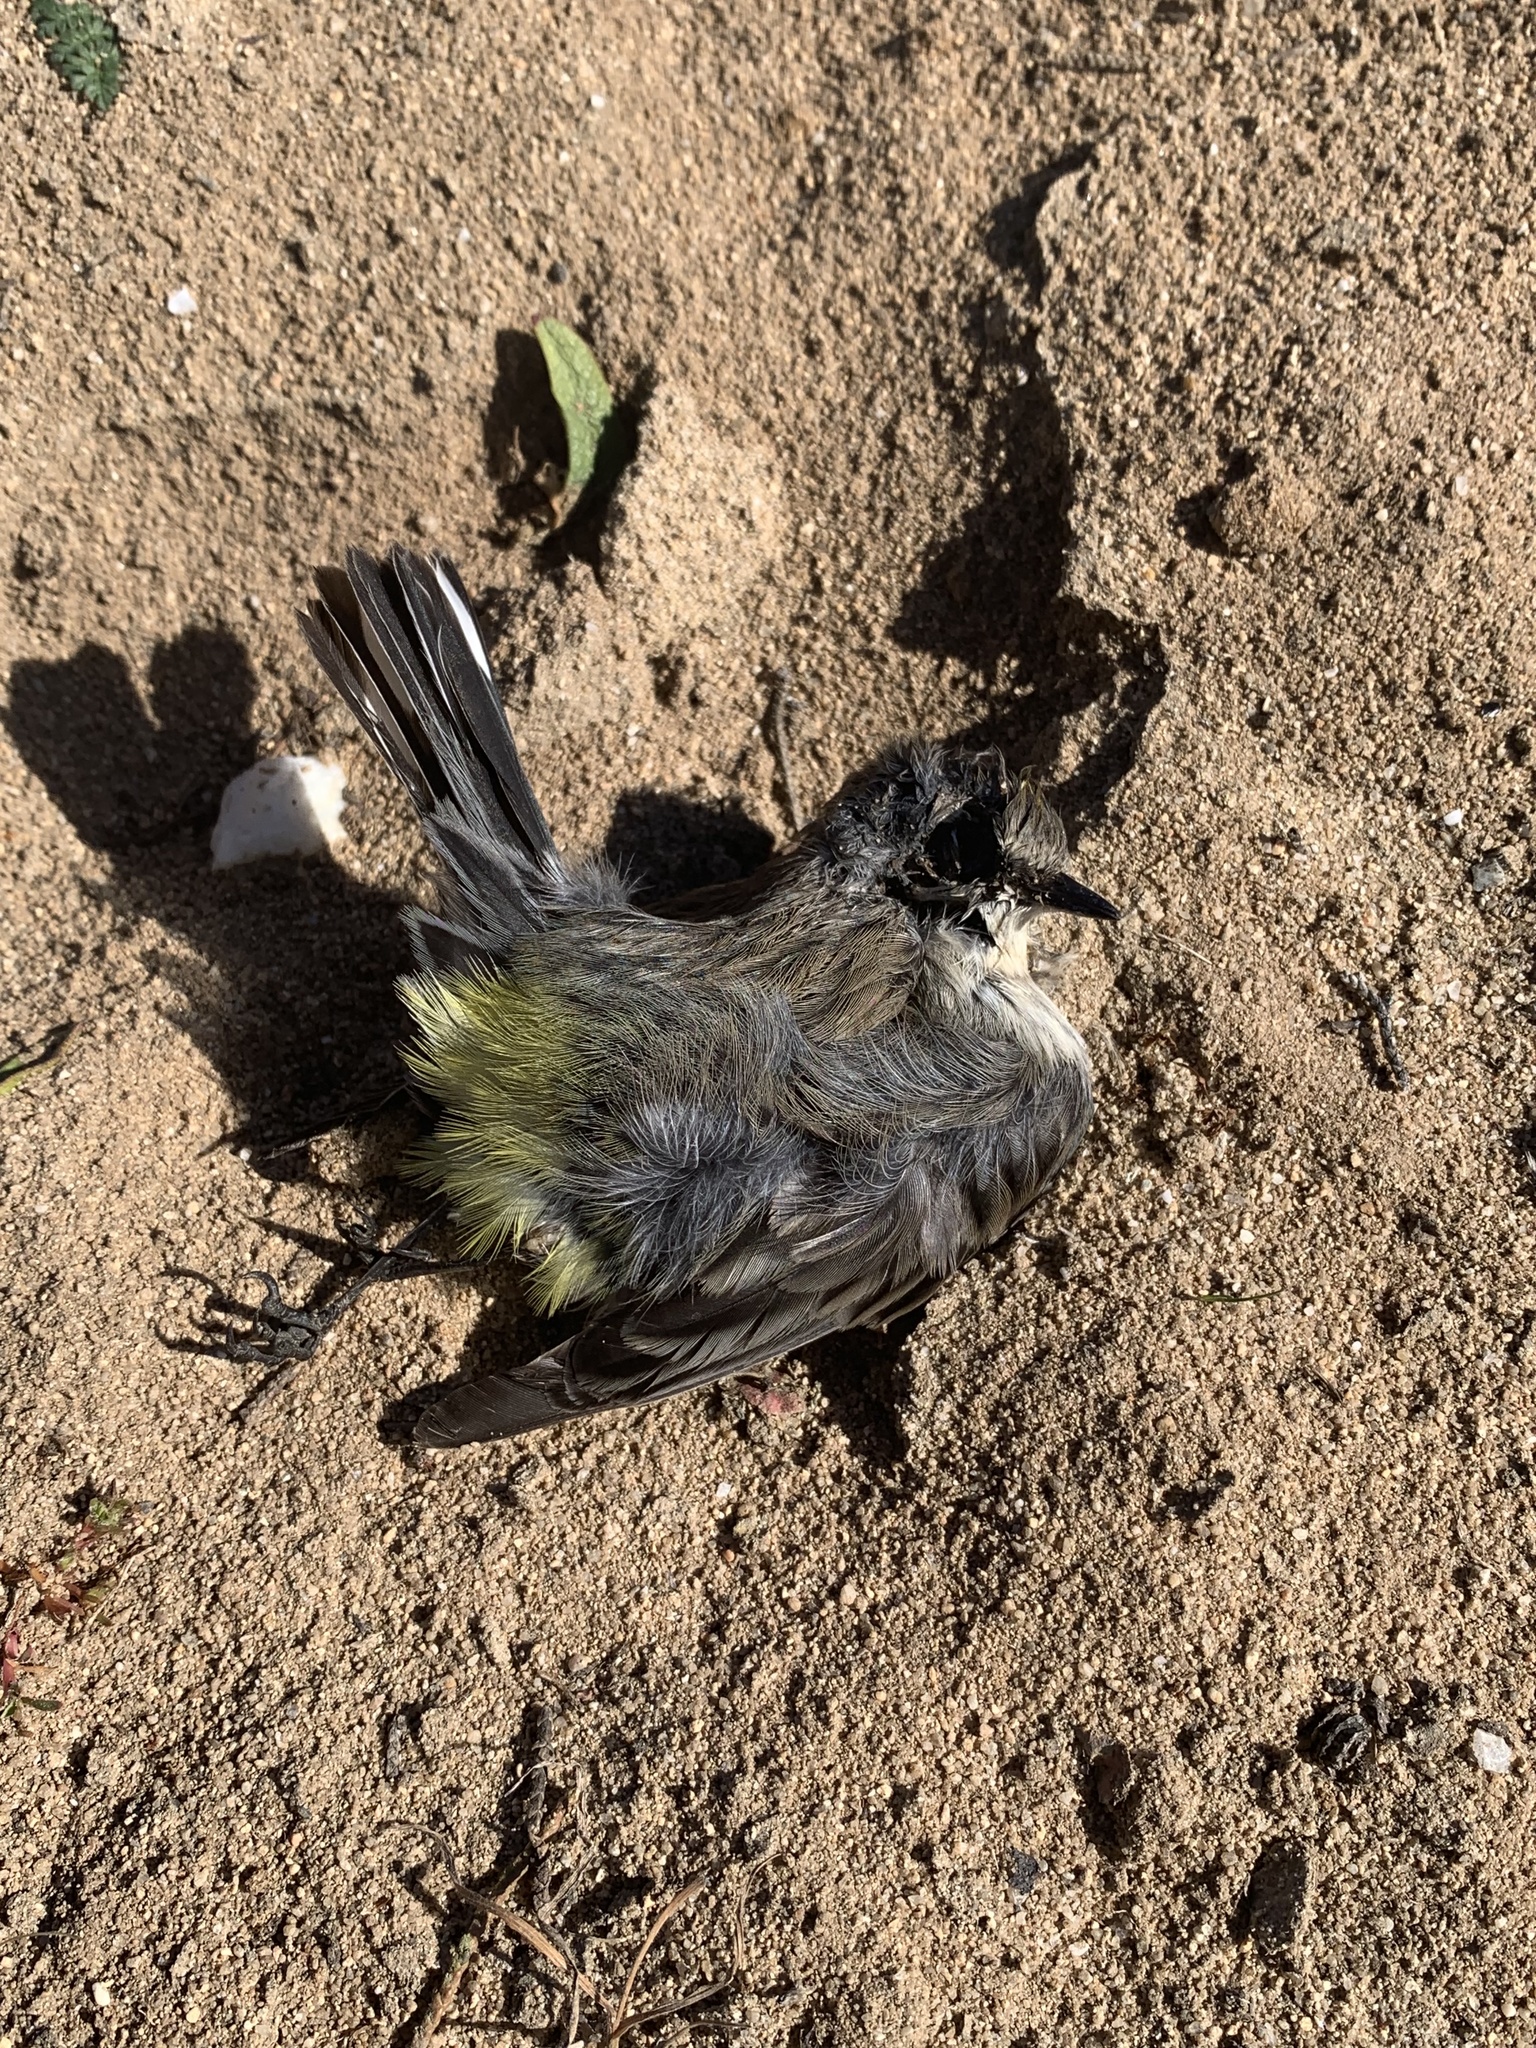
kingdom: Animalia
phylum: Chordata
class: Aves
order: Passeriformes
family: Parulidae
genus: Setophaga
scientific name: Setophaga coronata
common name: Myrtle warbler
